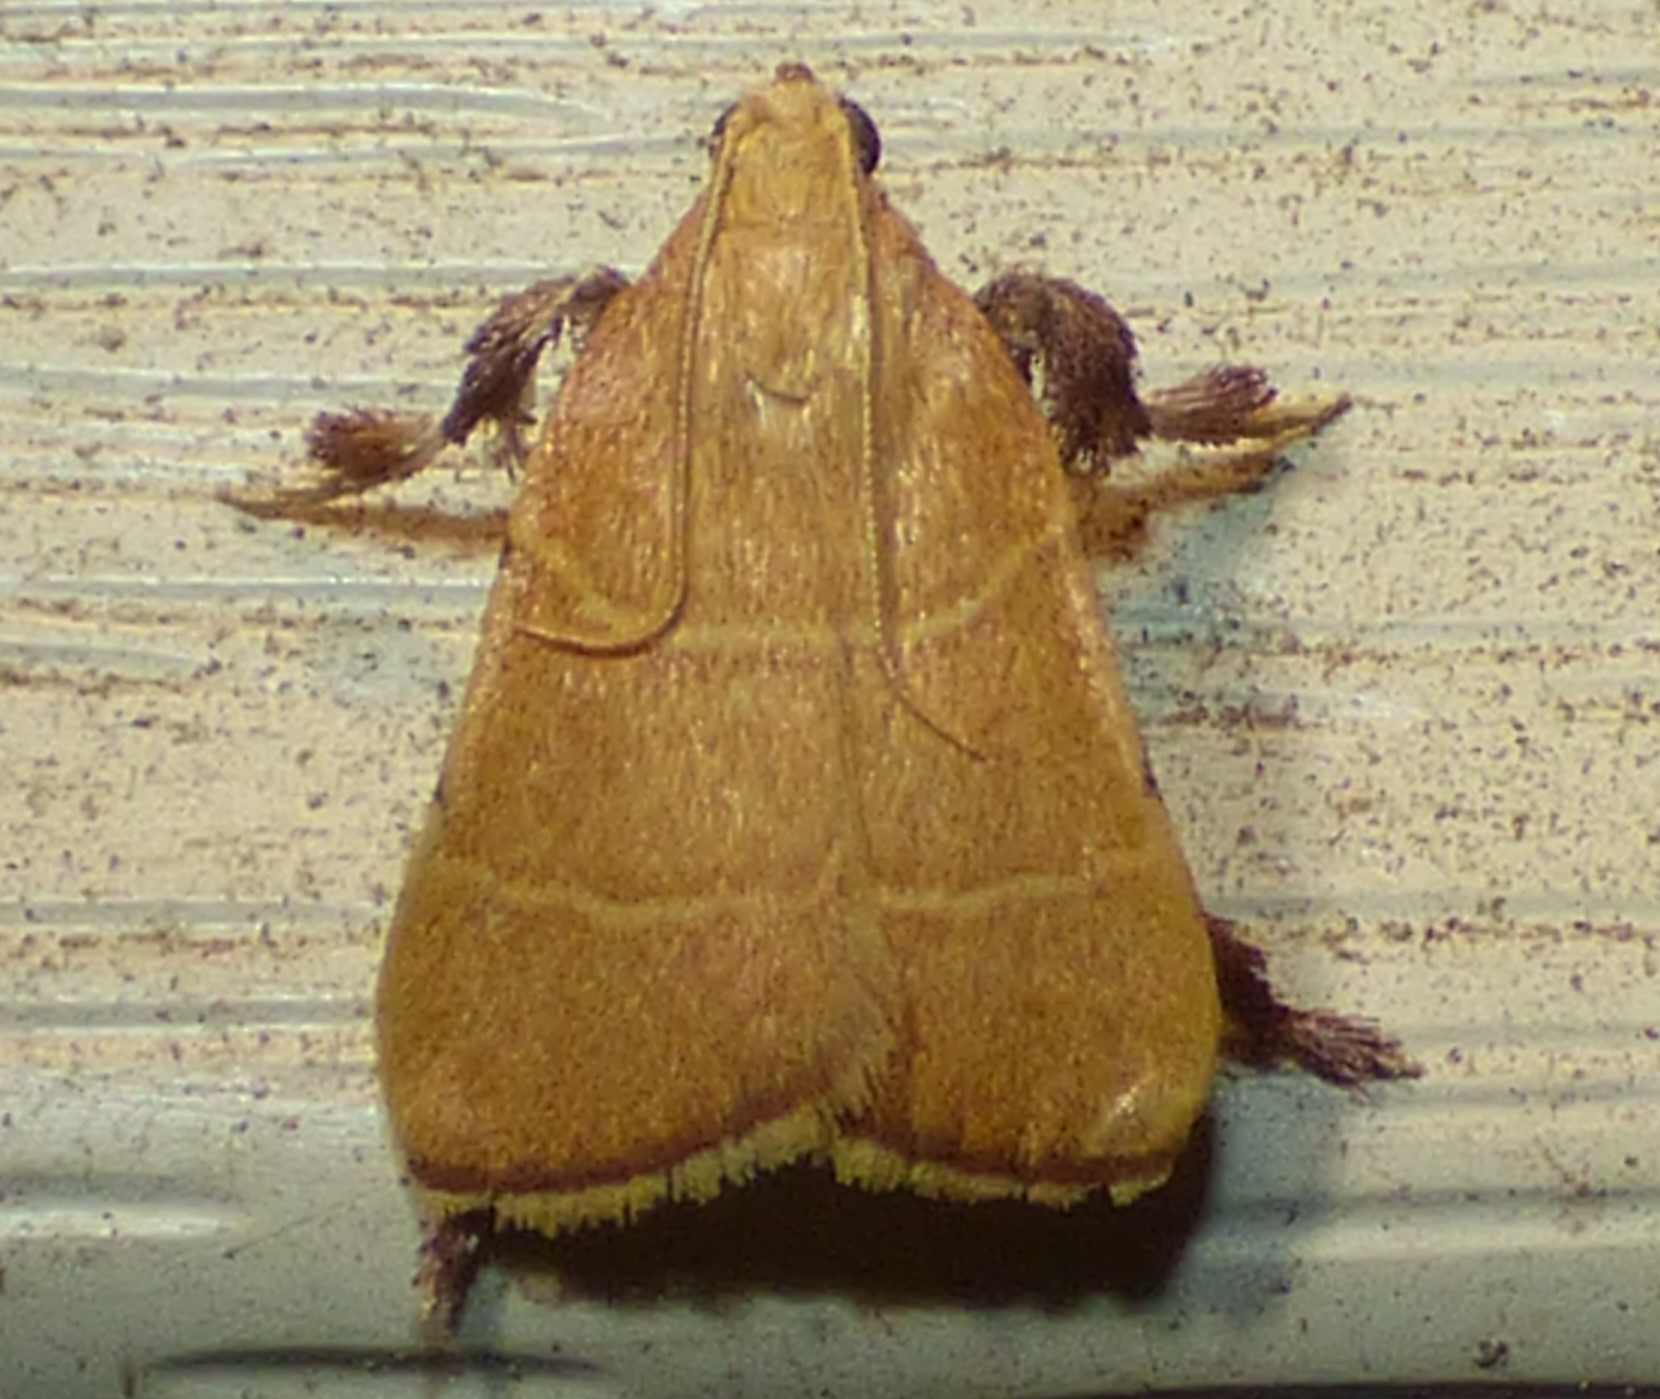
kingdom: Animalia
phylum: Arthropoda
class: Insecta
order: Lepidoptera
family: Pyralidae
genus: Parachma
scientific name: Parachma ochracealis
